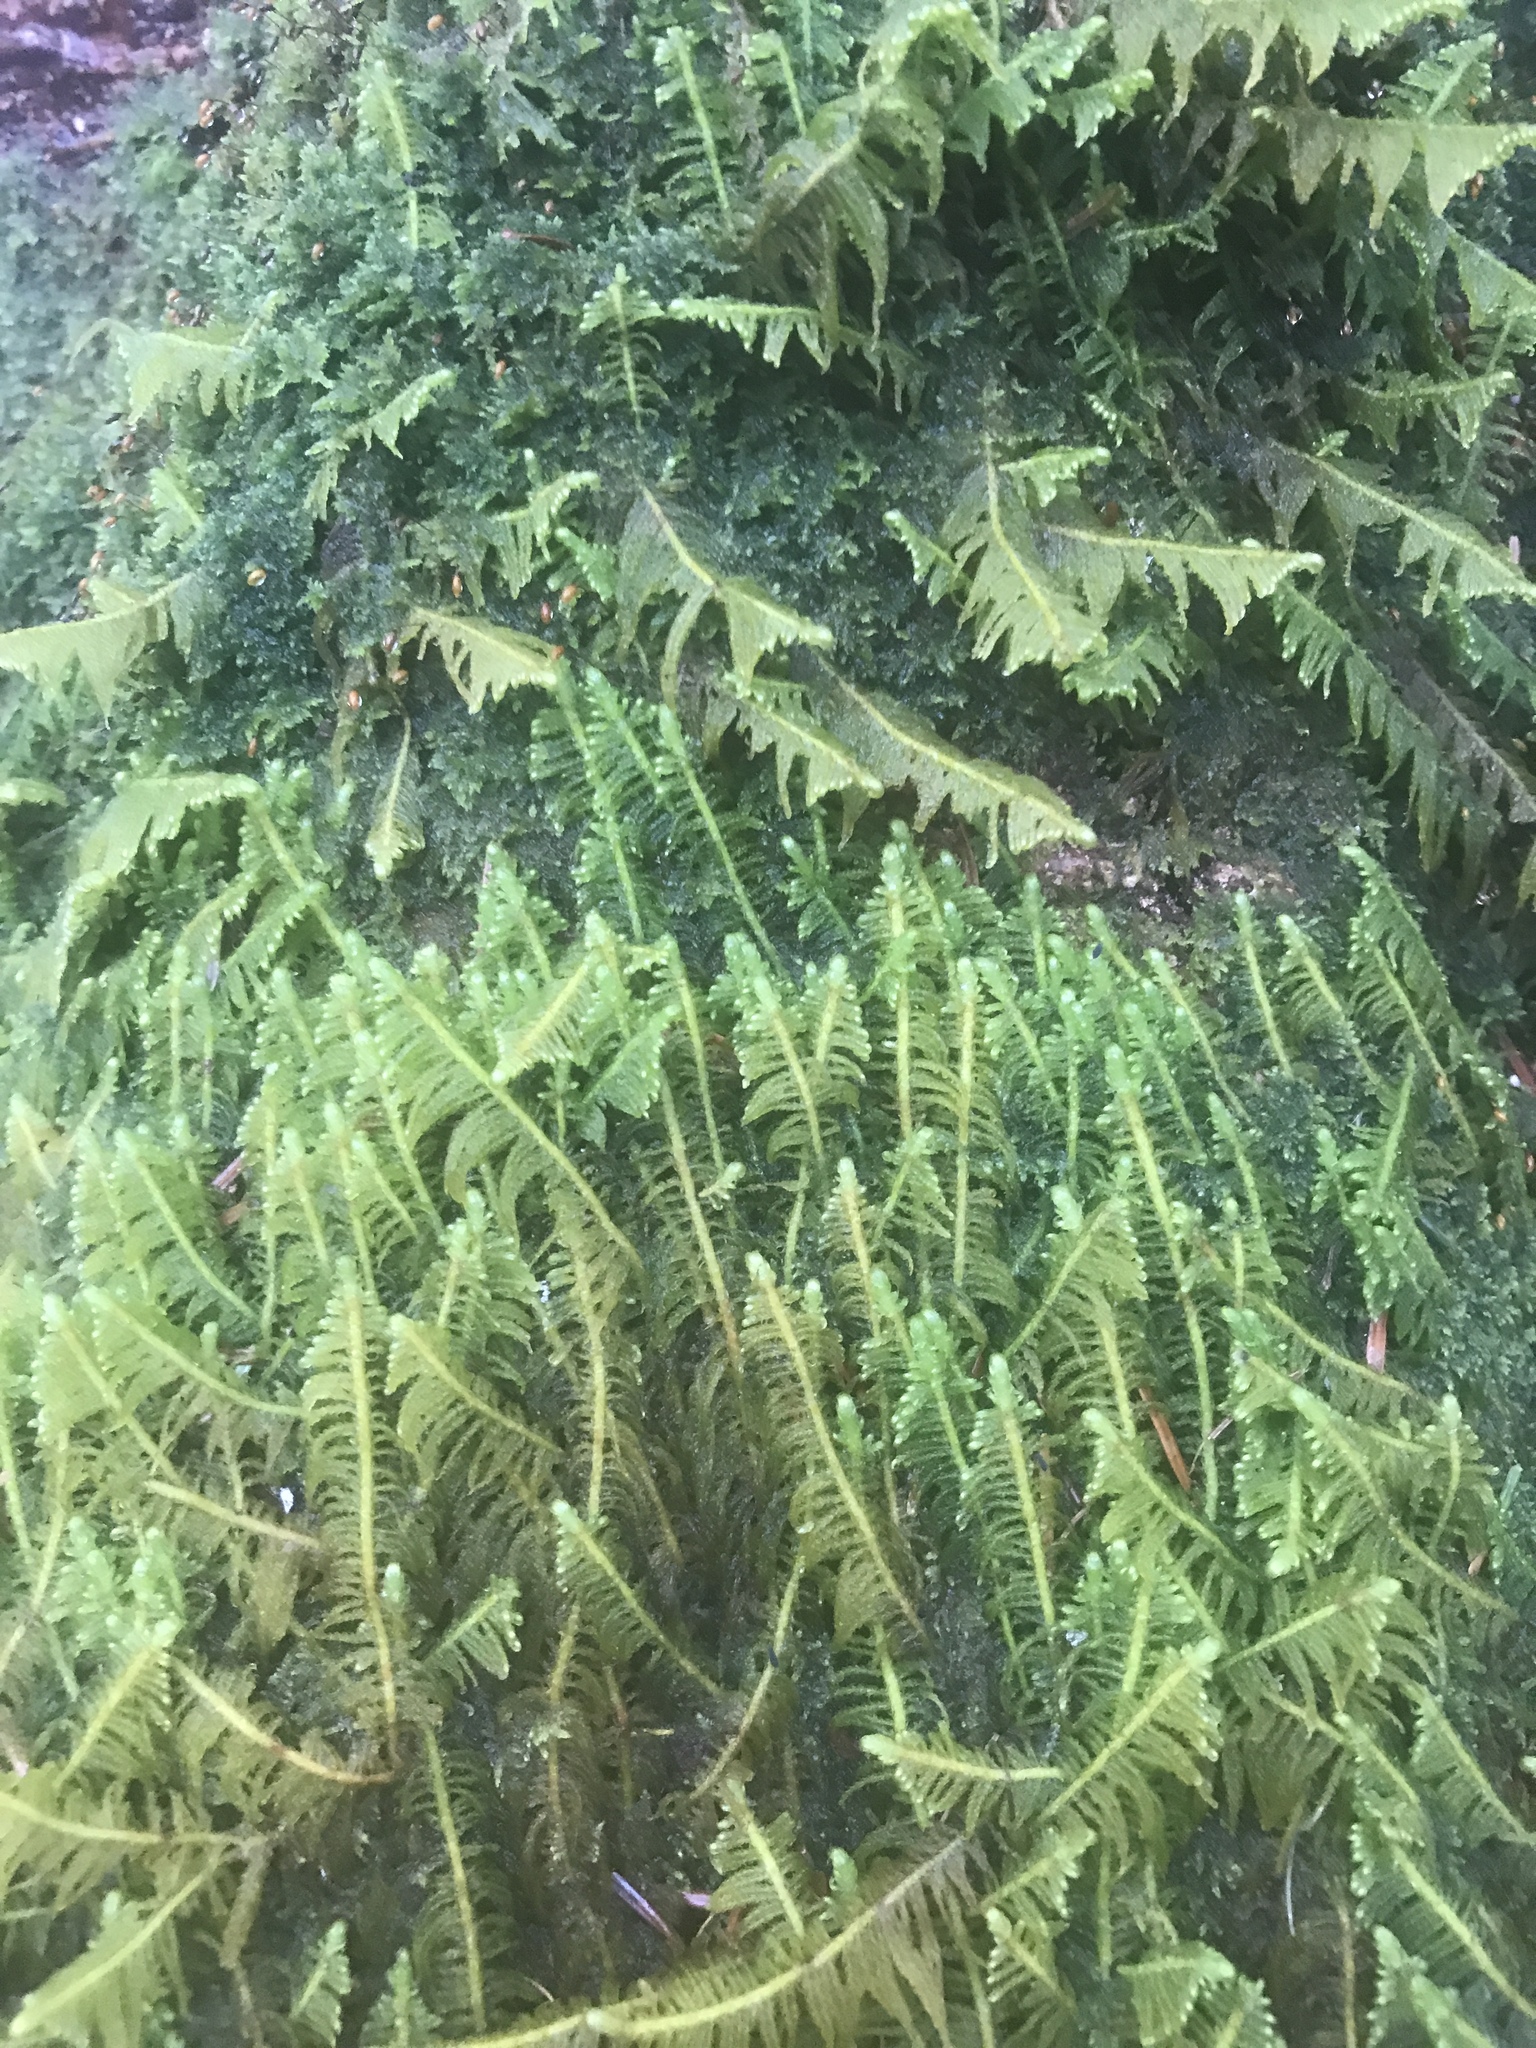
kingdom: Plantae
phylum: Bryophyta
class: Bryopsida
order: Hypnales
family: Pylaisiaceae
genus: Ptilium
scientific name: Ptilium crista-castrensis
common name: Knight's plume moss
